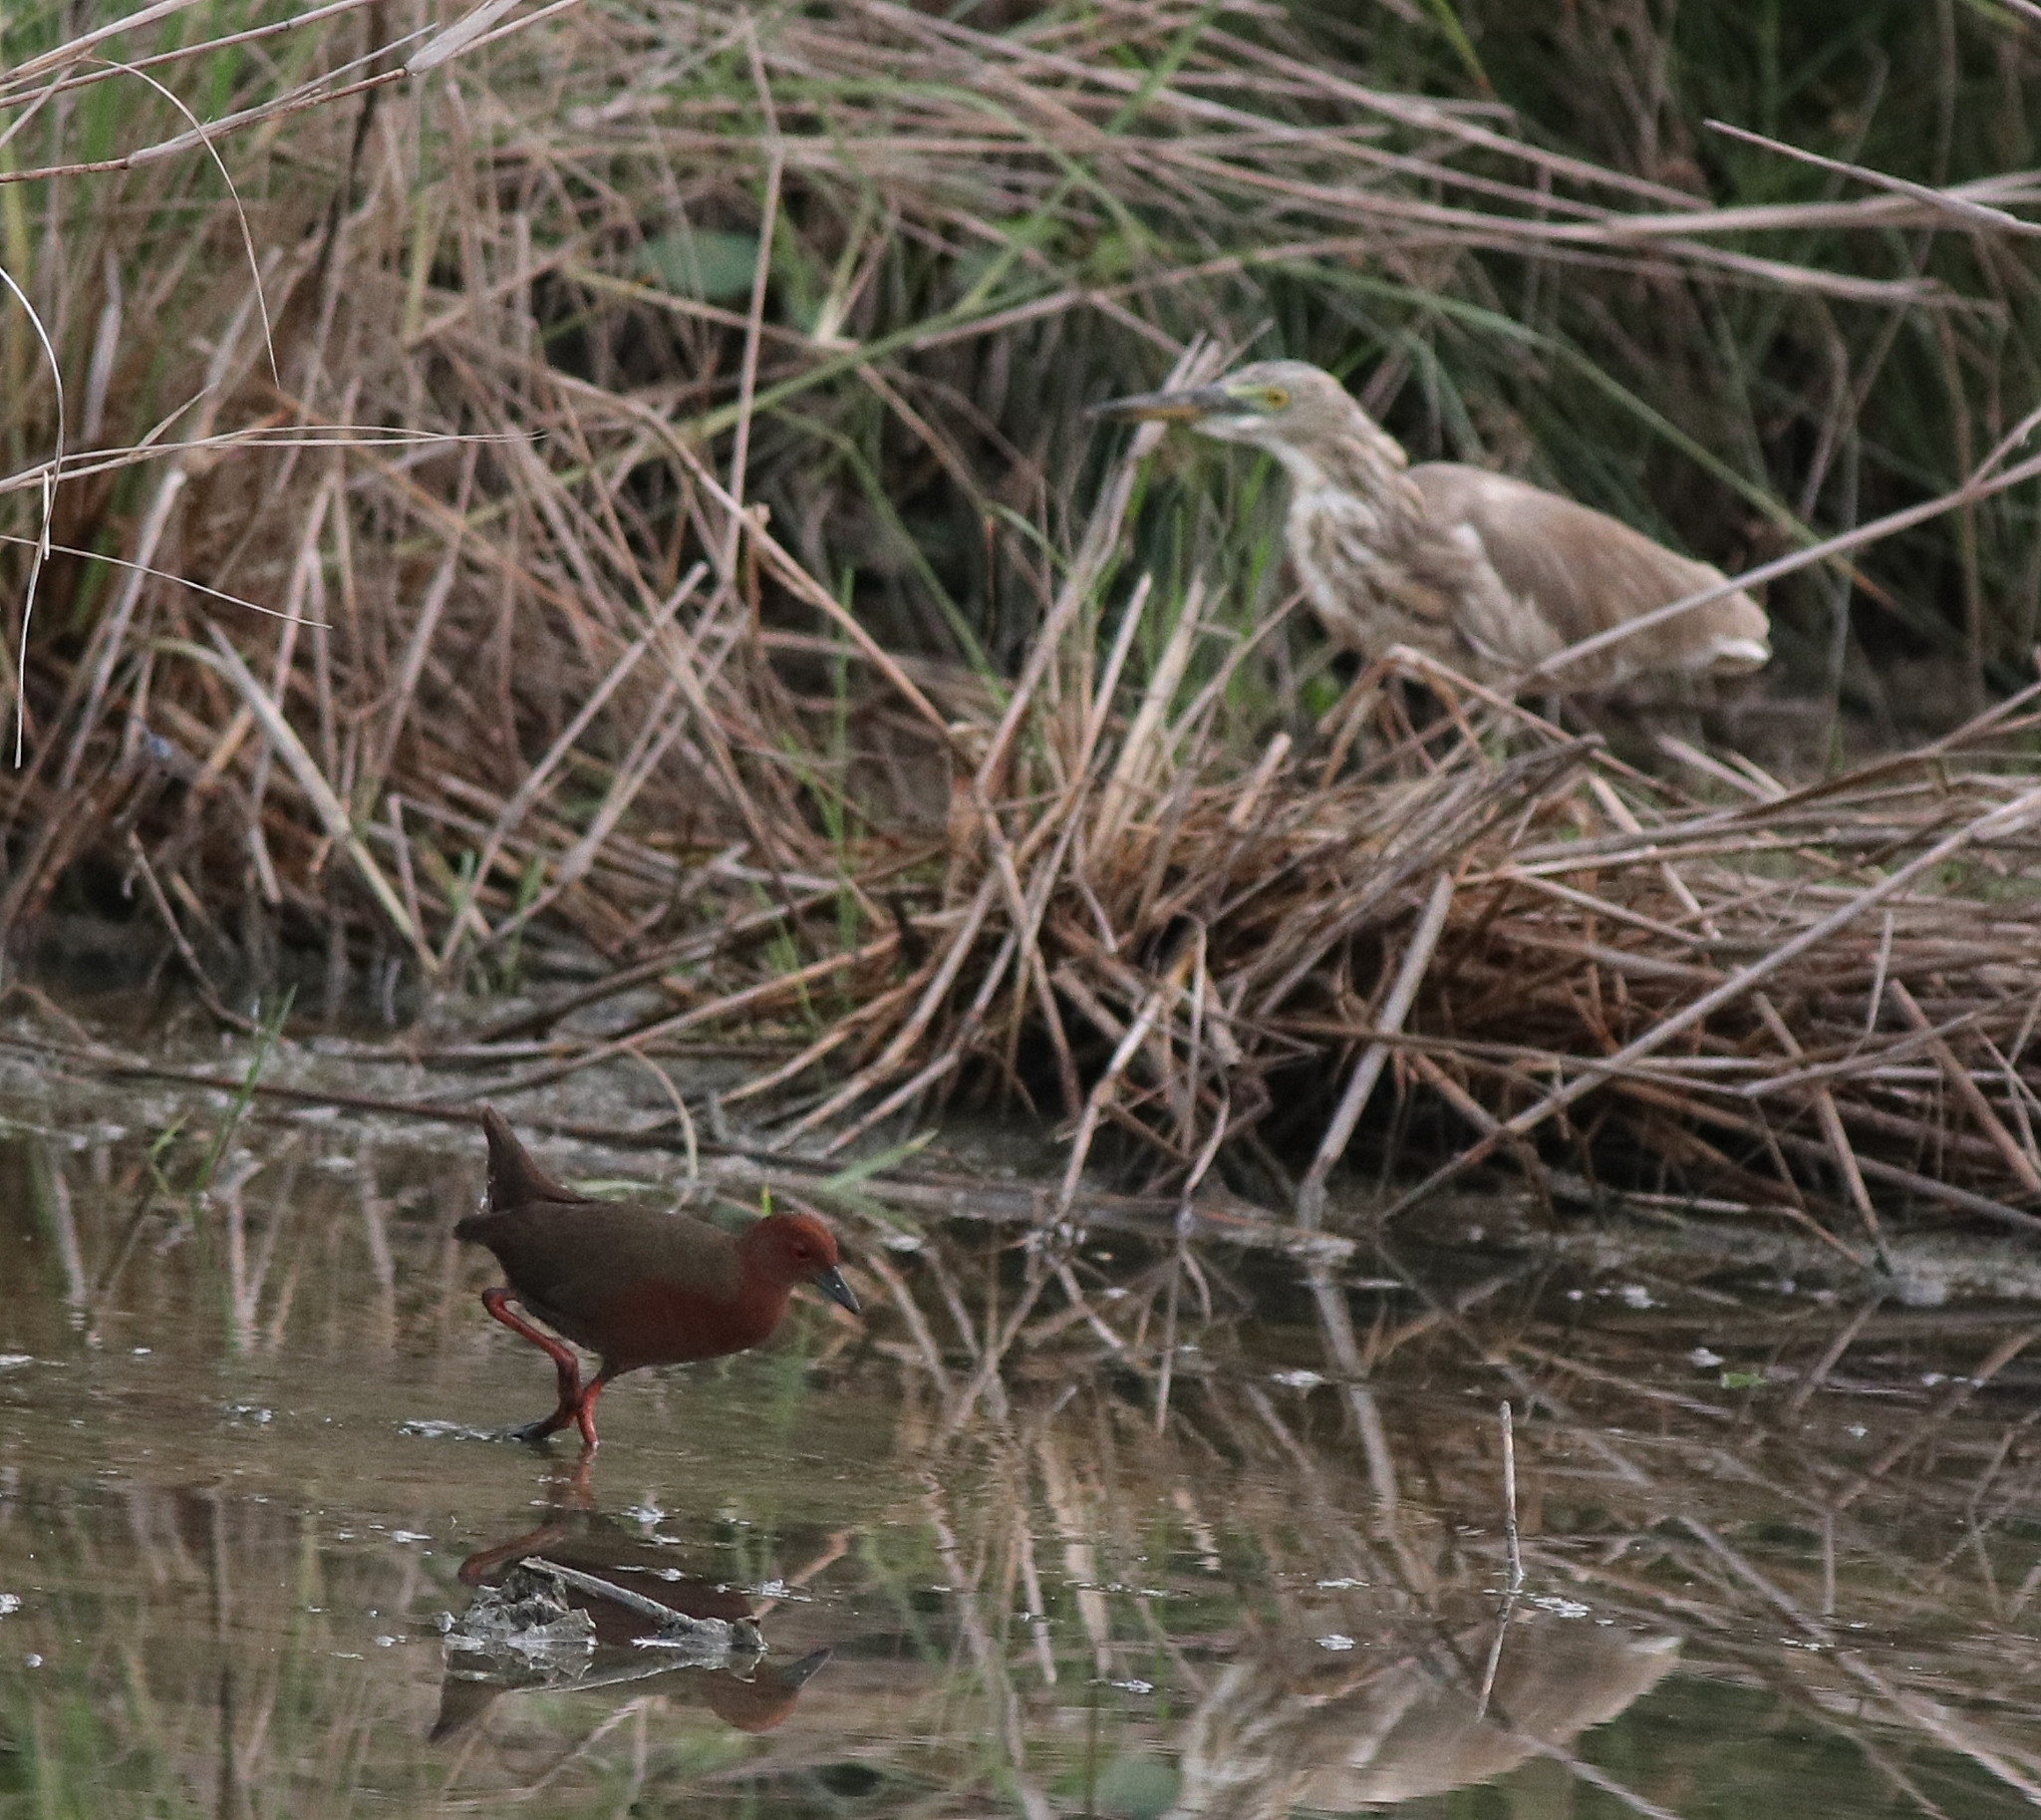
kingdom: Animalia
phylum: Chordata
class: Aves
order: Pelecaniformes
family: Ardeidae
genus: Ardeola
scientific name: Ardeola grayii
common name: Indian pond heron
